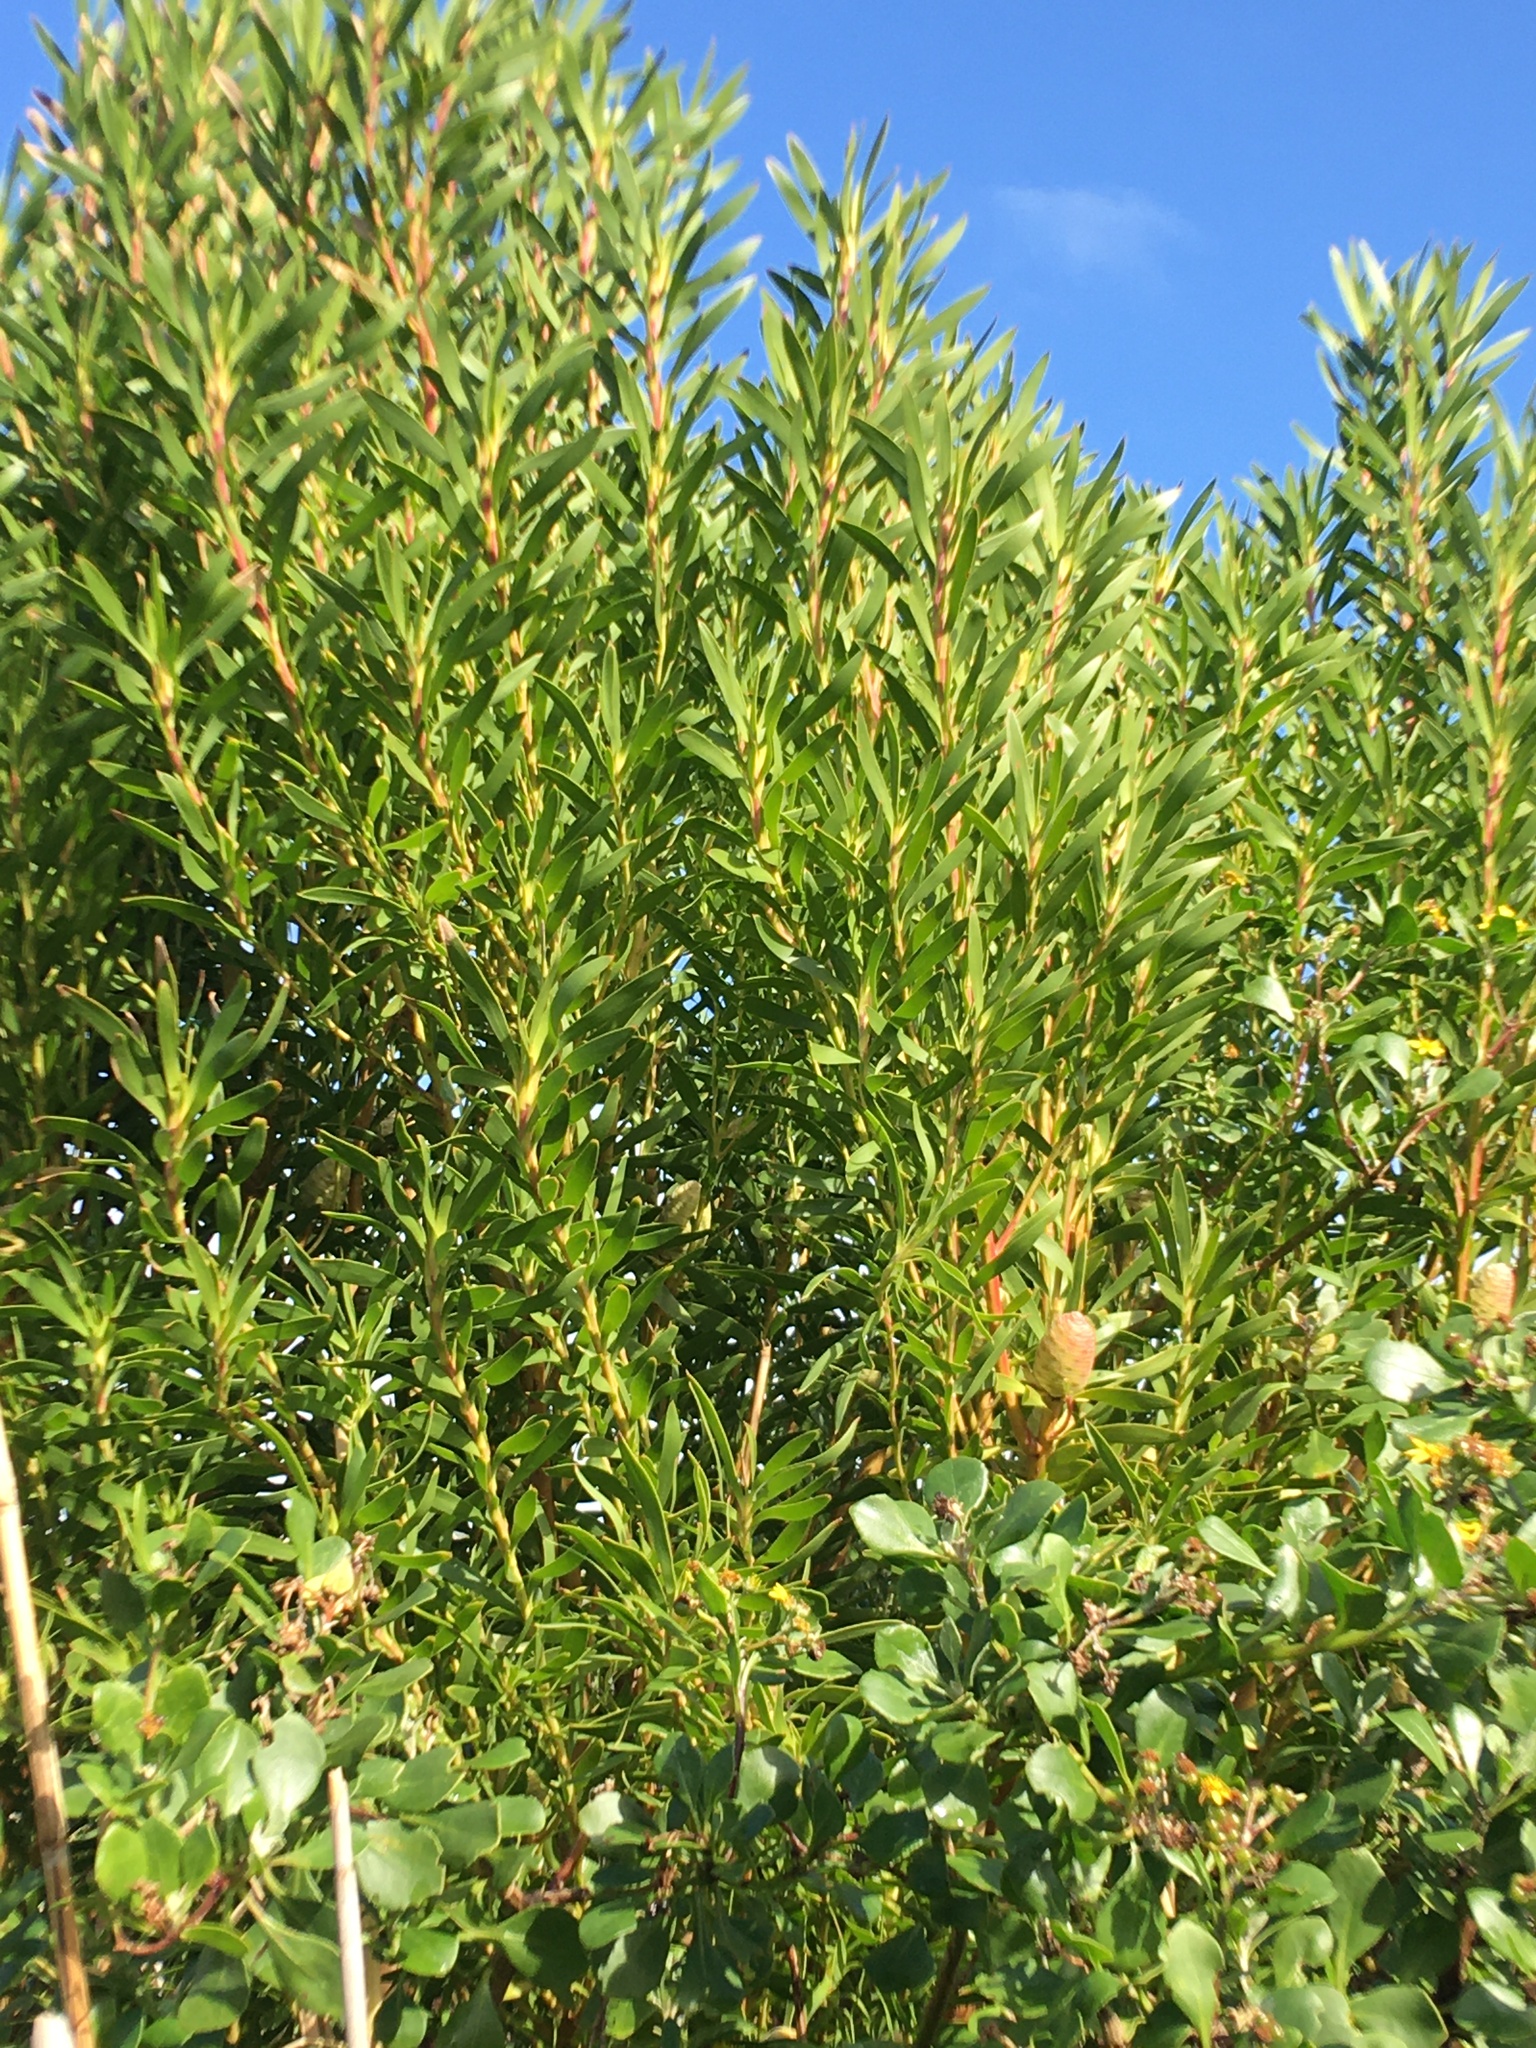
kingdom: Plantae
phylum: Tracheophyta
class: Magnoliopsida
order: Proteales
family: Proteaceae
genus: Leucadendron
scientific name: Leucadendron coniferum
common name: Dune conebush
